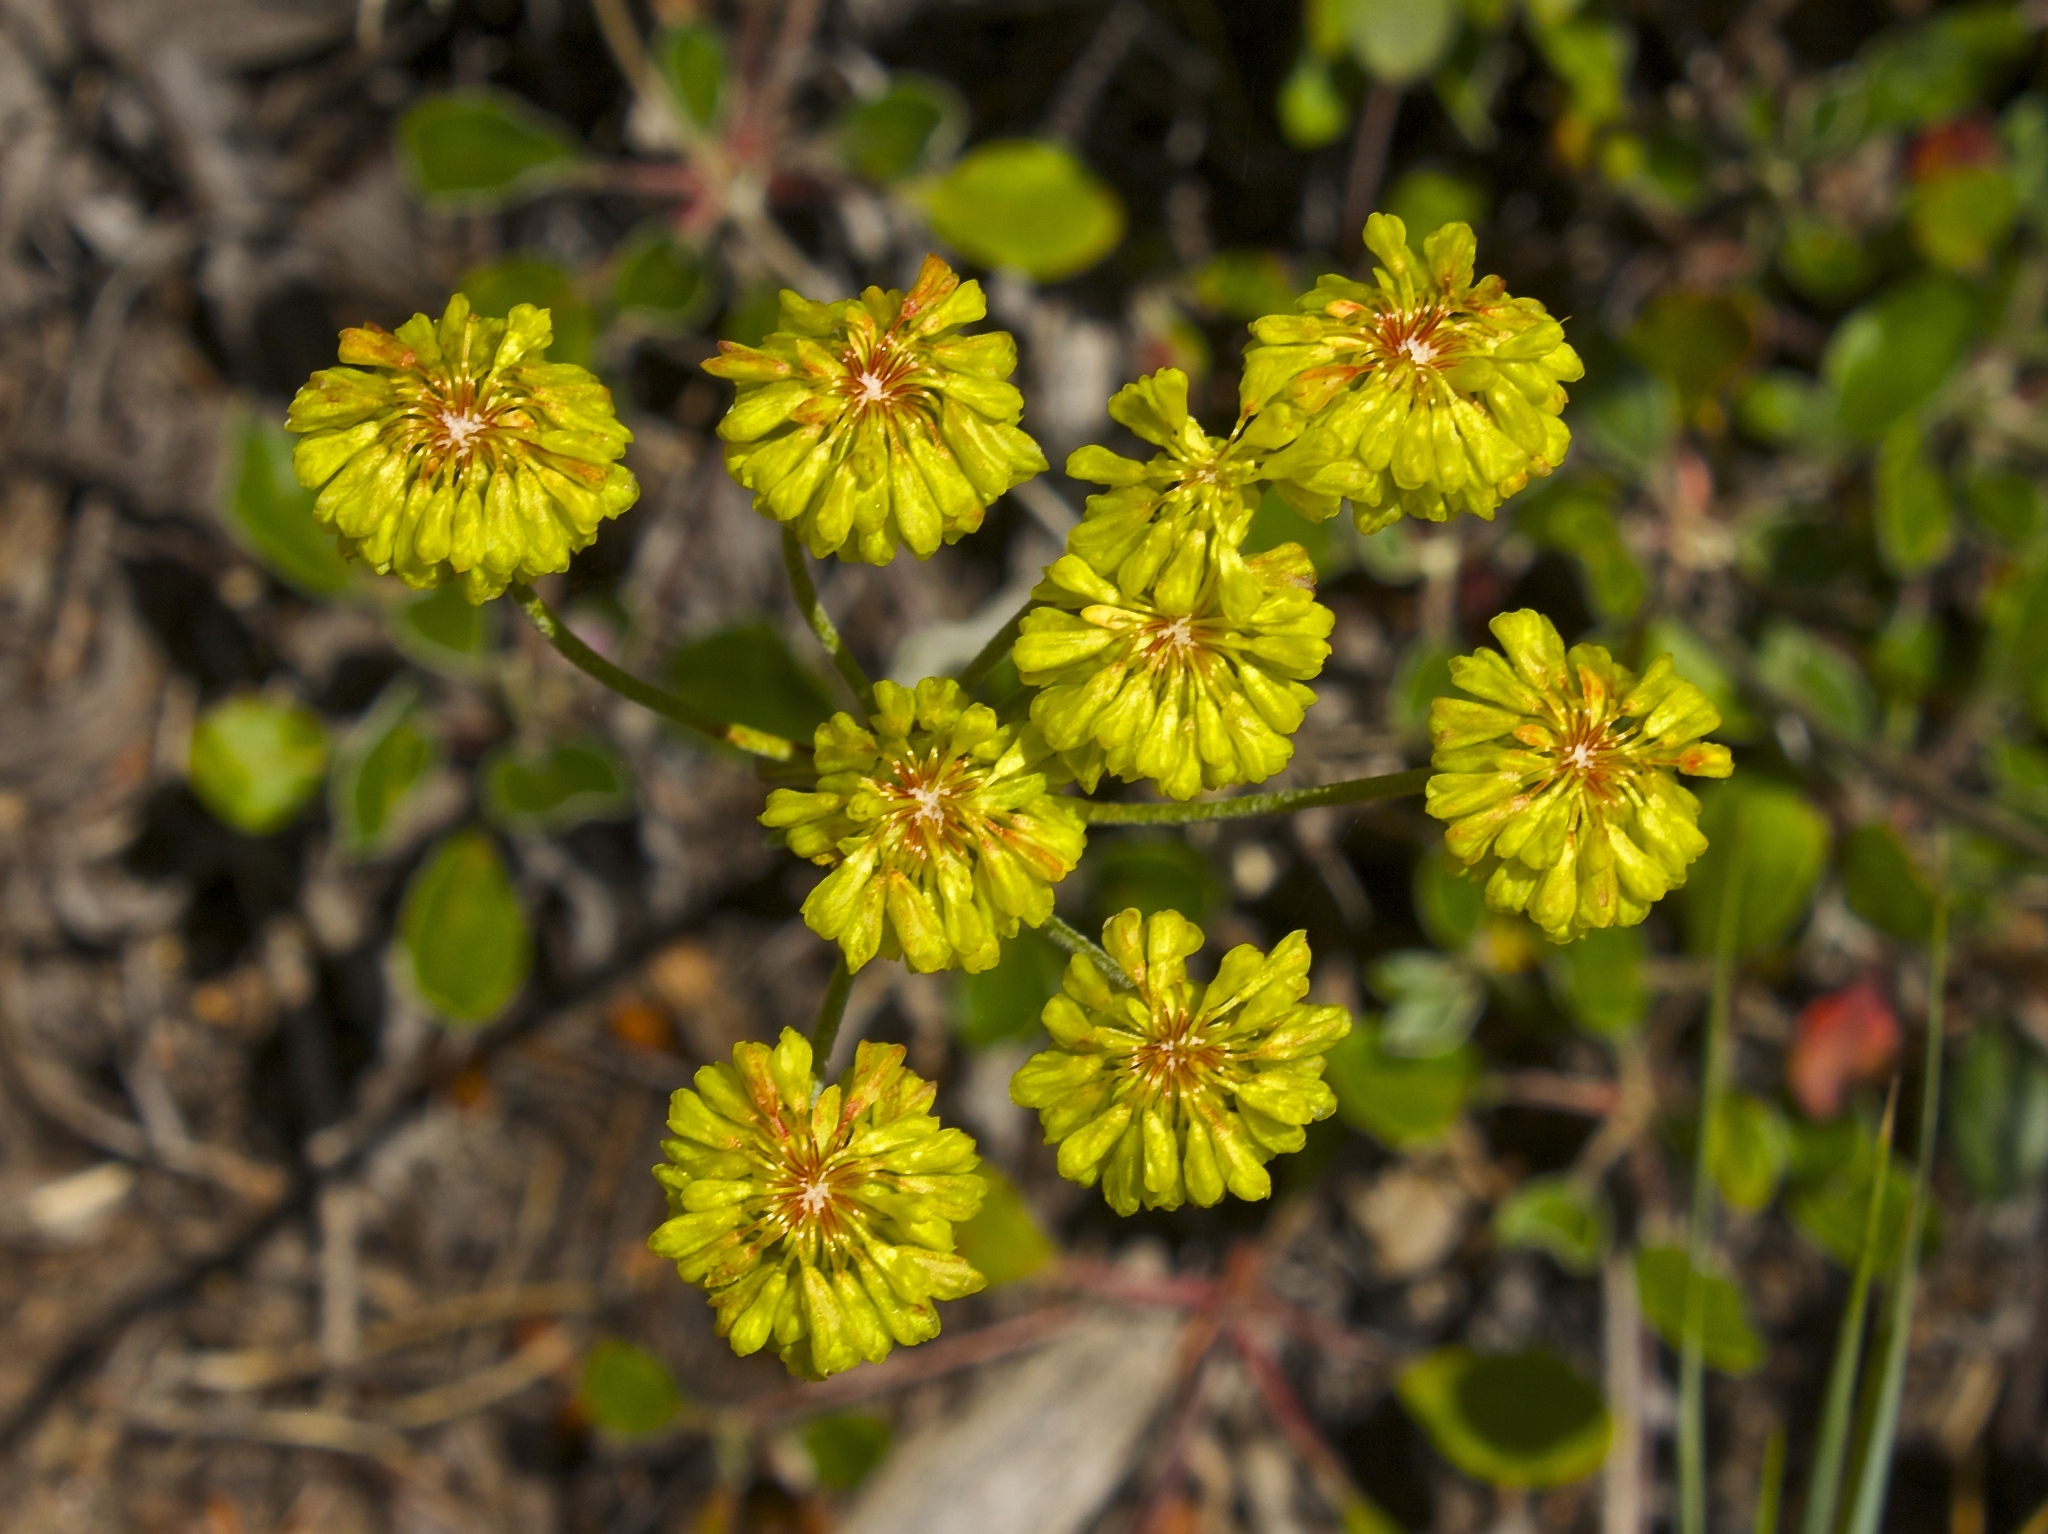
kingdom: Plantae
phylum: Tracheophyta
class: Magnoliopsida
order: Caryophyllales
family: Polygonaceae
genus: Eriogonum
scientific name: Eriogonum umbellatum
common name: Sulfur-buckwheat
